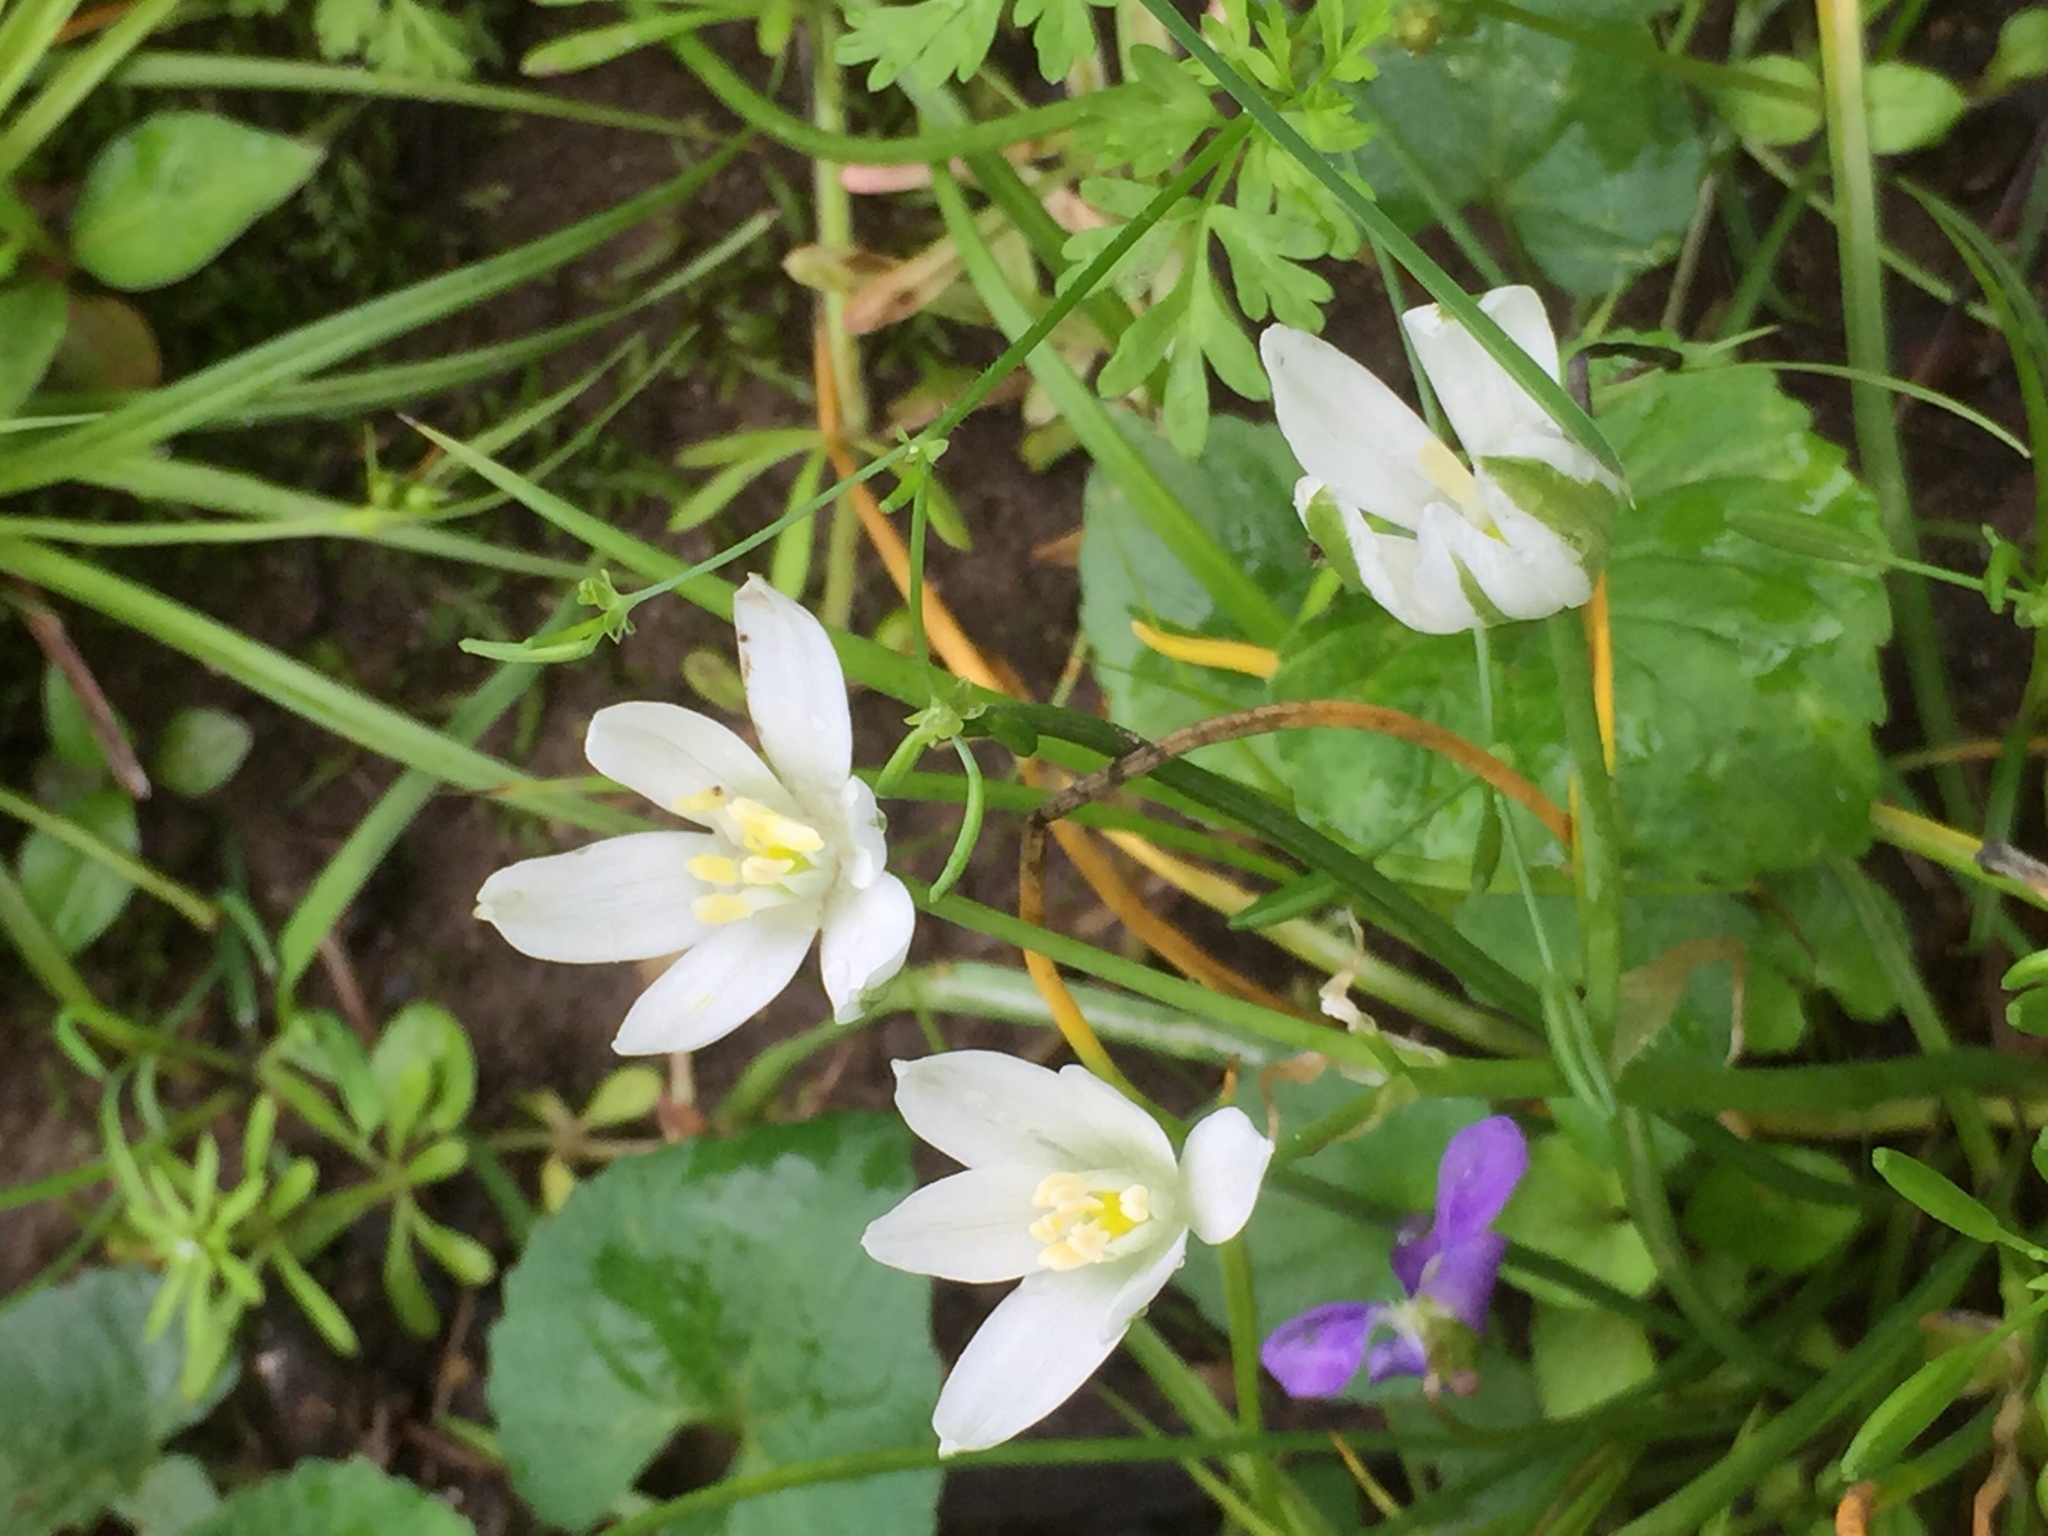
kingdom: Plantae
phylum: Tracheophyta
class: Liliopsida
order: Asparagales
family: Asparagaceae
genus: Ornithogalum
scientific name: Ornithogalum umbellatum
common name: Garden star-of-bethlehem
